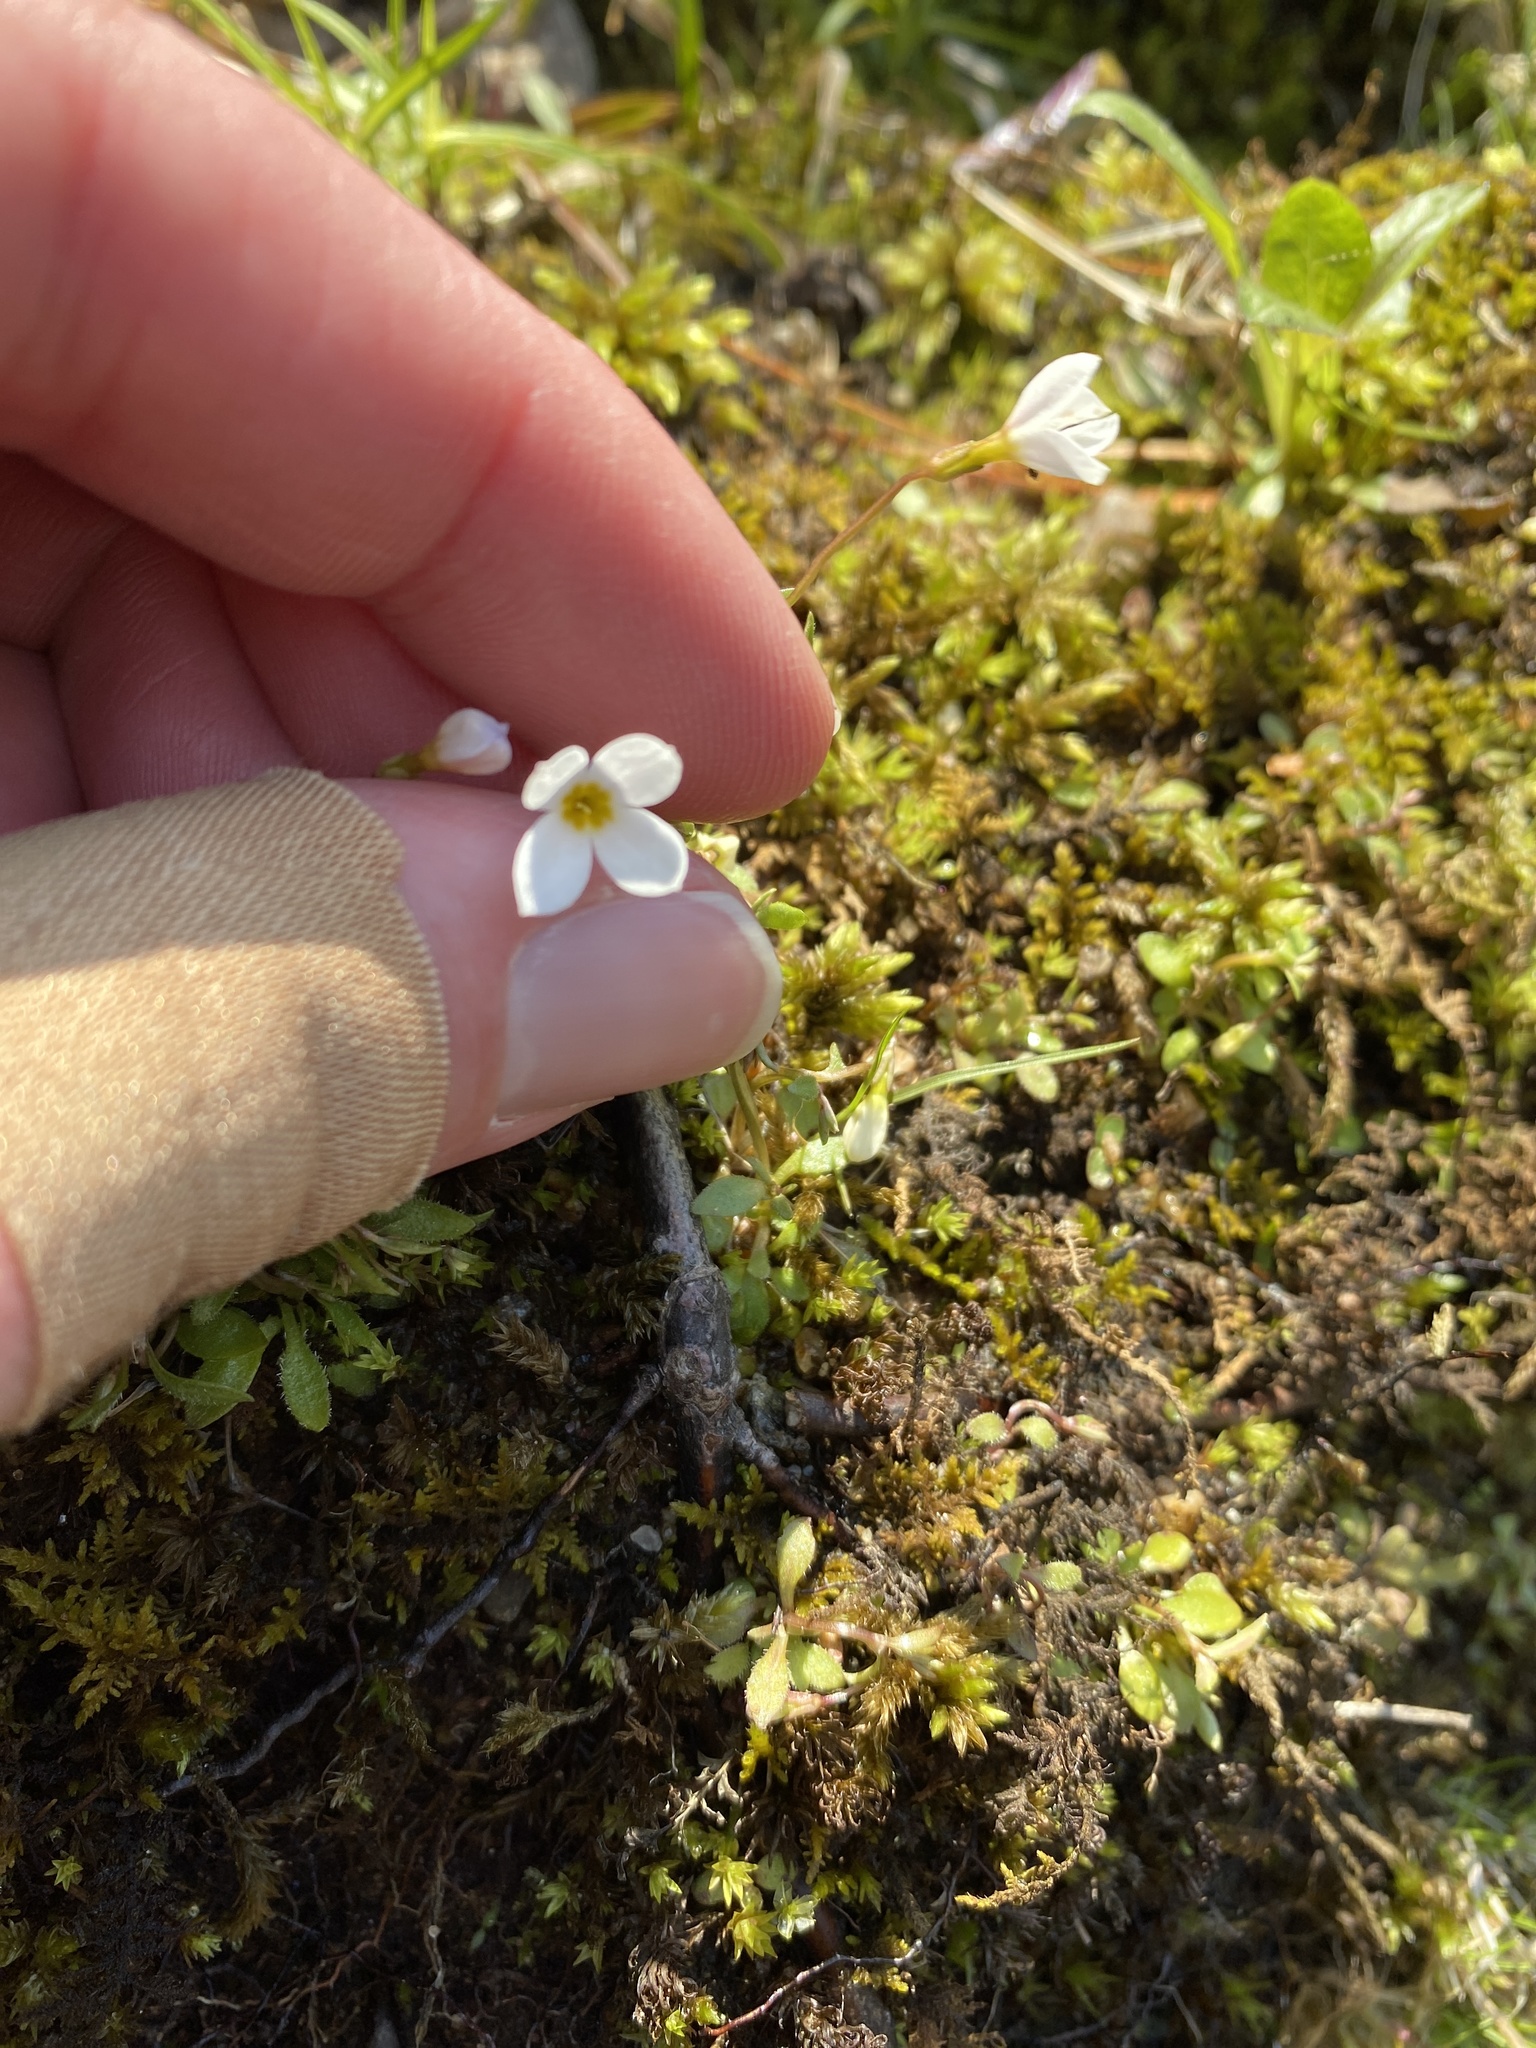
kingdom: Plantae
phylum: Tracheophyta
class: Magnoliopsida
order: Gentianales
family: Rubiaceae
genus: Houstonia
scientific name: Houstonia caerulea
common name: Bluets
